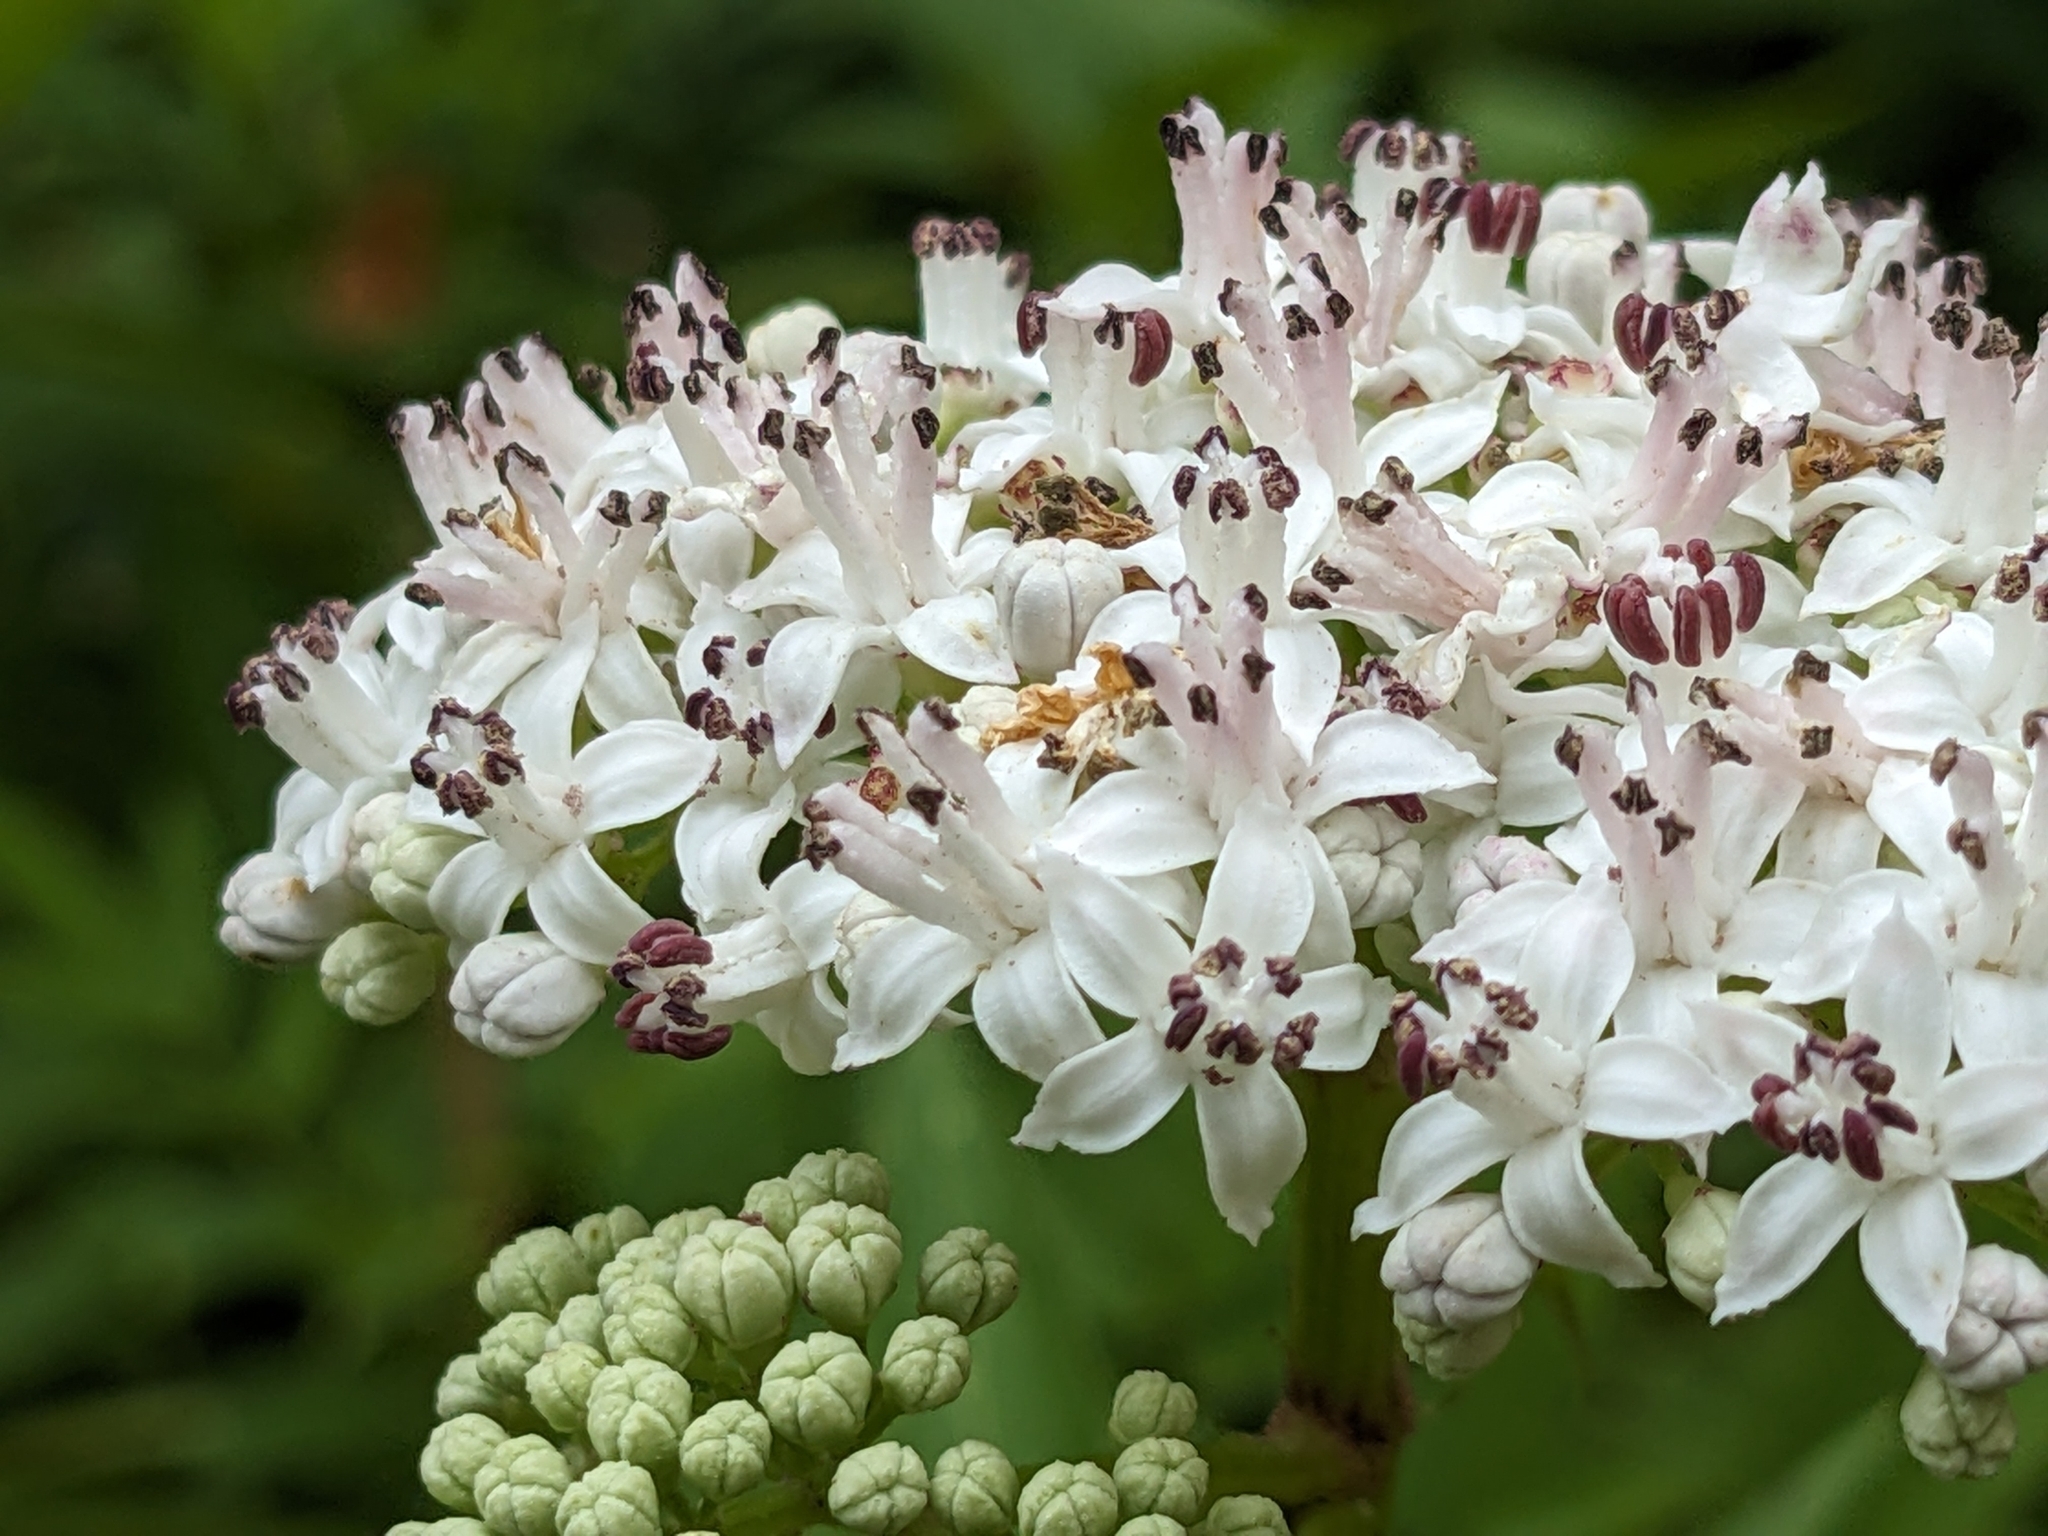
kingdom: Plantae
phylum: Tracheophyta
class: Magnoliopsida
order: Dipsacales
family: Viburnaceae
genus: Sambucus
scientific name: Sambucus ebulus
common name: Dwarf elder
